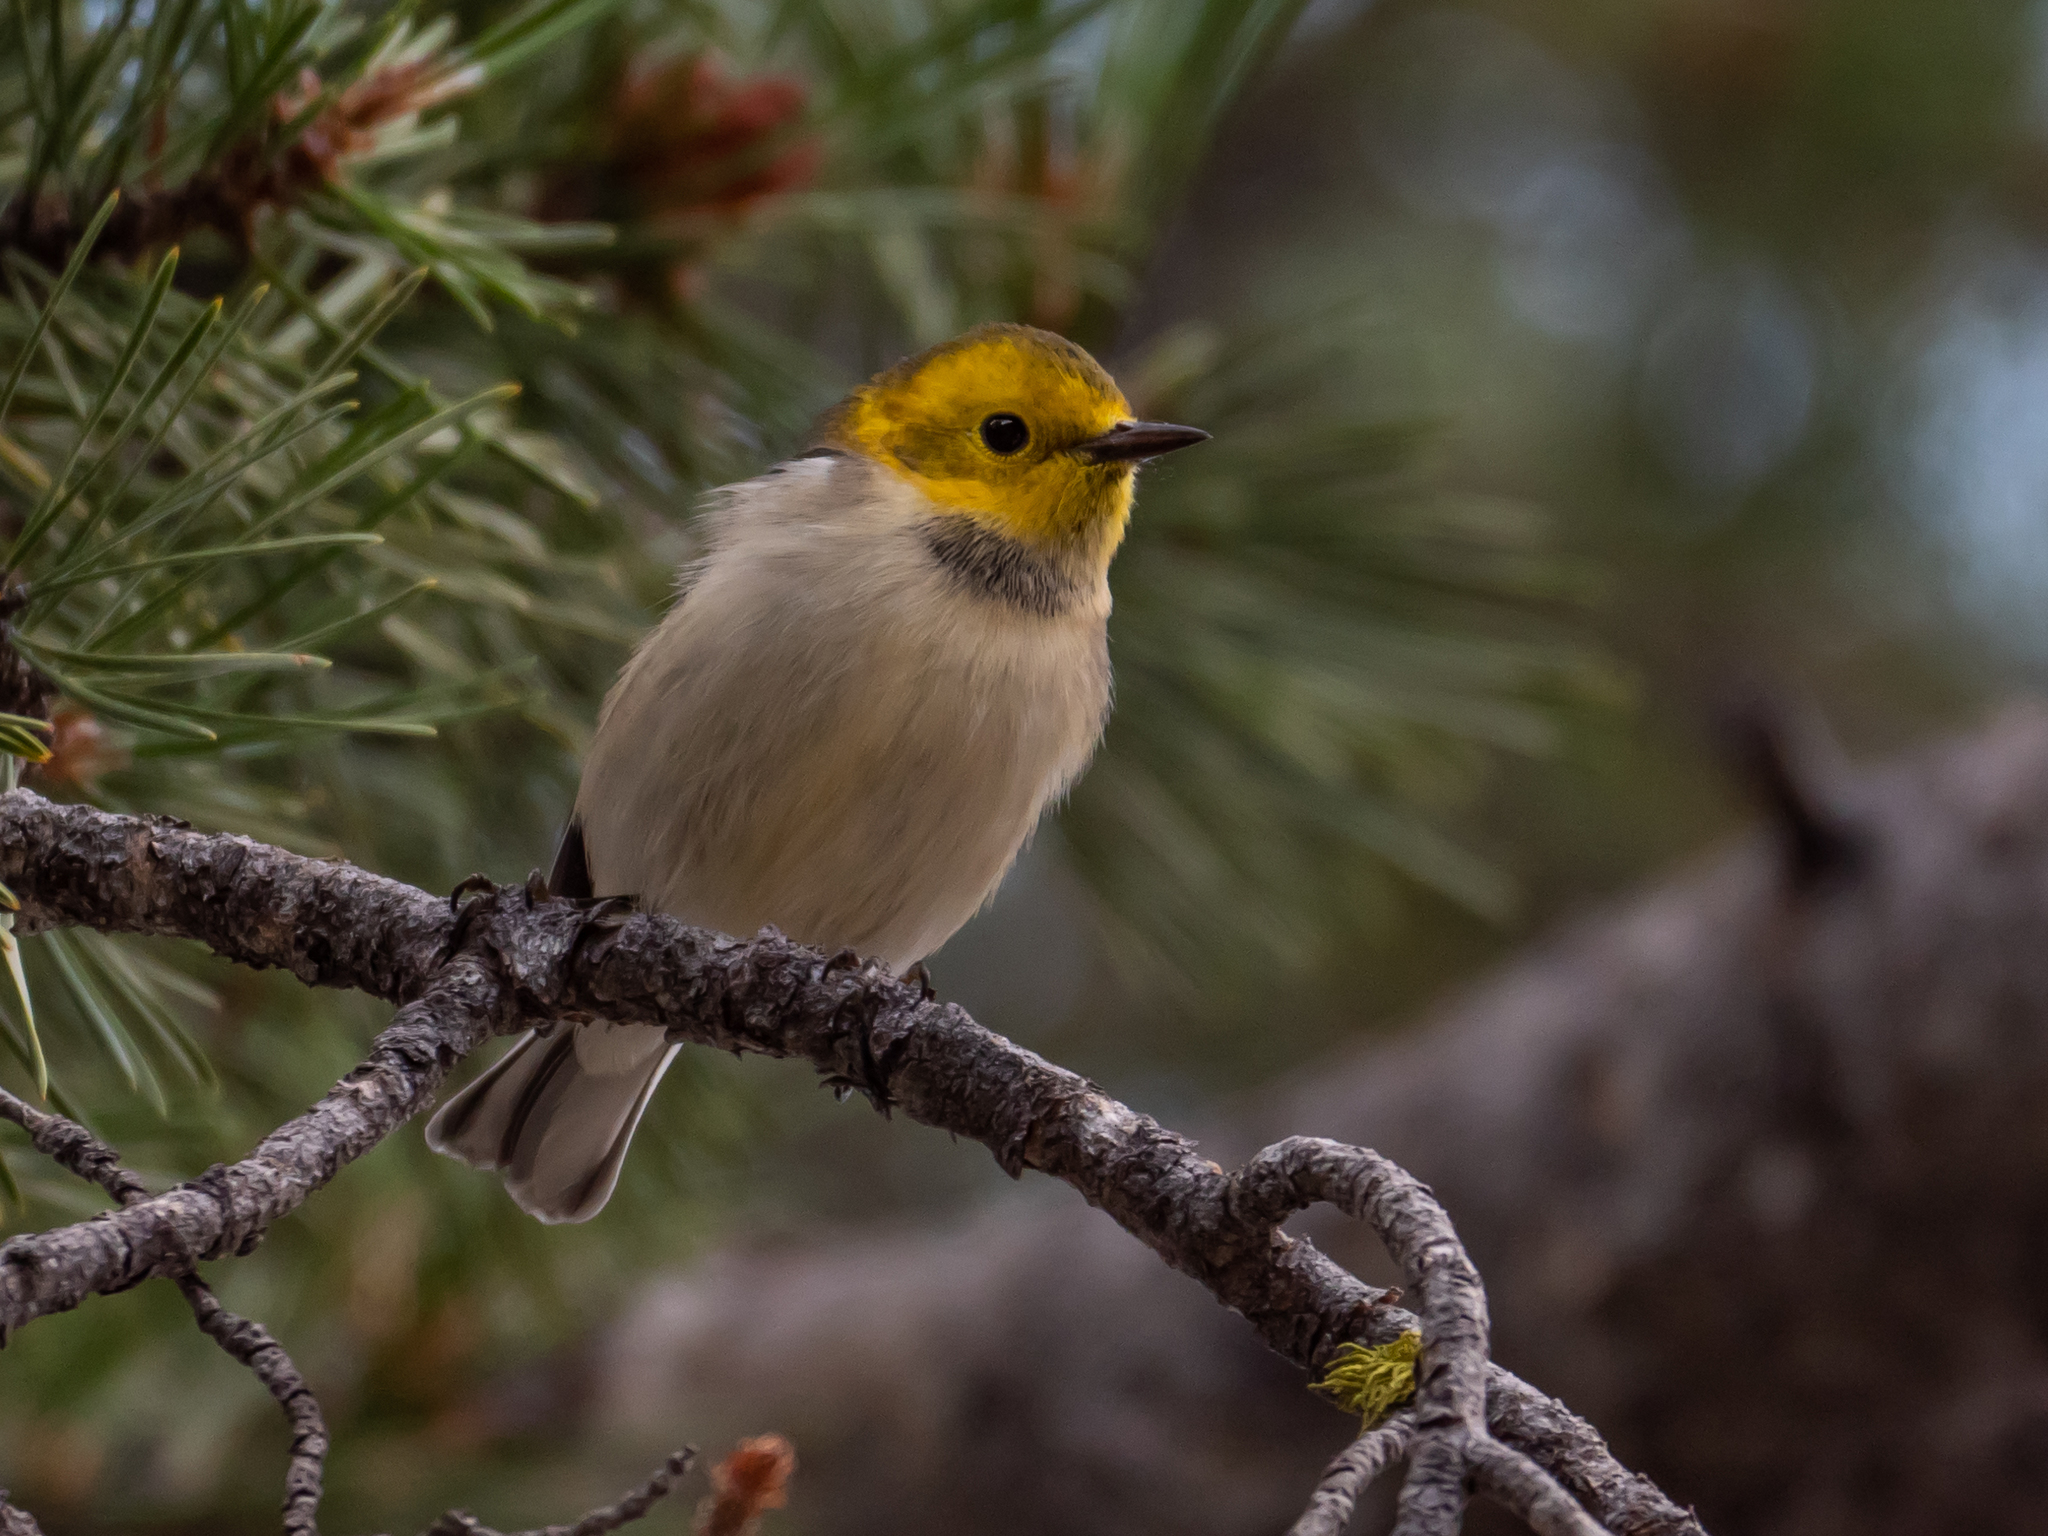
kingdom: Animalia
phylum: Chordata
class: Aves
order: Passeriformes
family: Parulidae
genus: Setophaga
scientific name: Setophaga occidentalis
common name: Hermit warbler
